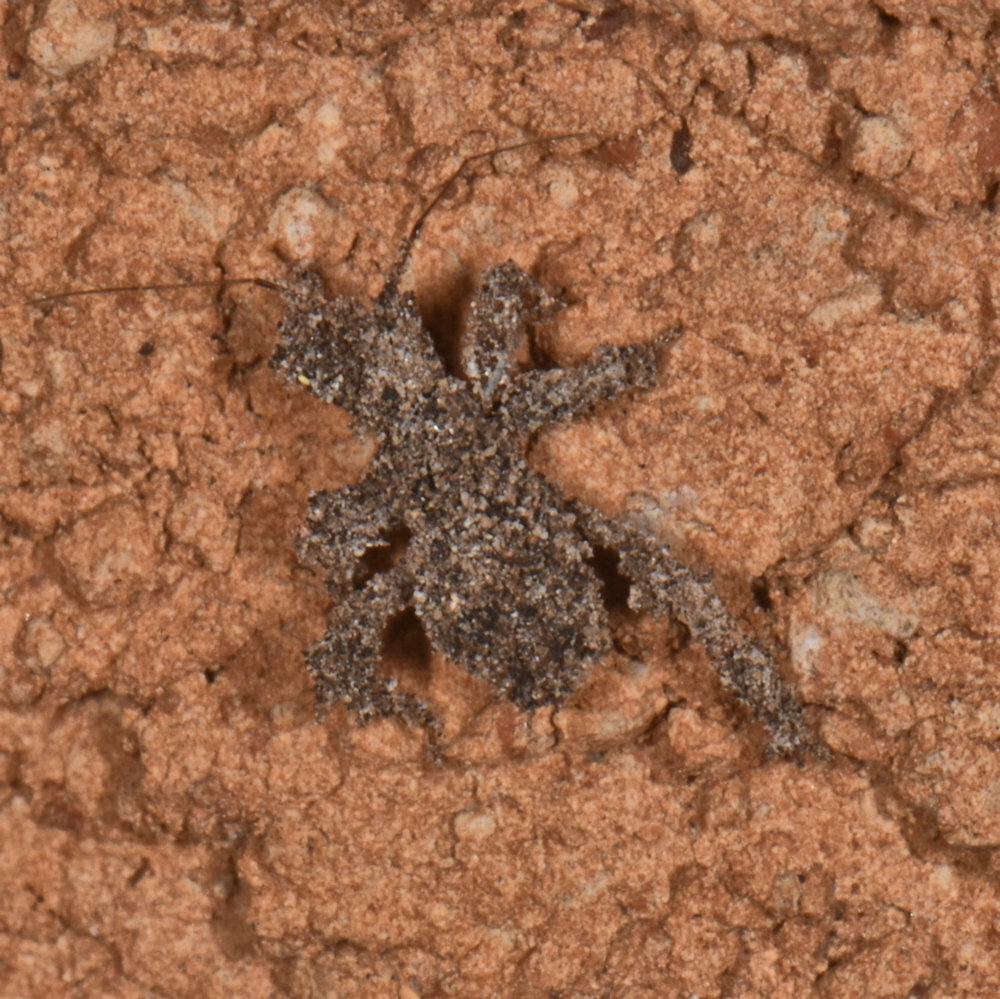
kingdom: Animalia
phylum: Arthropoda
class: Insecta
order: Hemiptera
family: Reduviidae
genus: Reduvius
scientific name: Reduvius personatus
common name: Masked hunter
